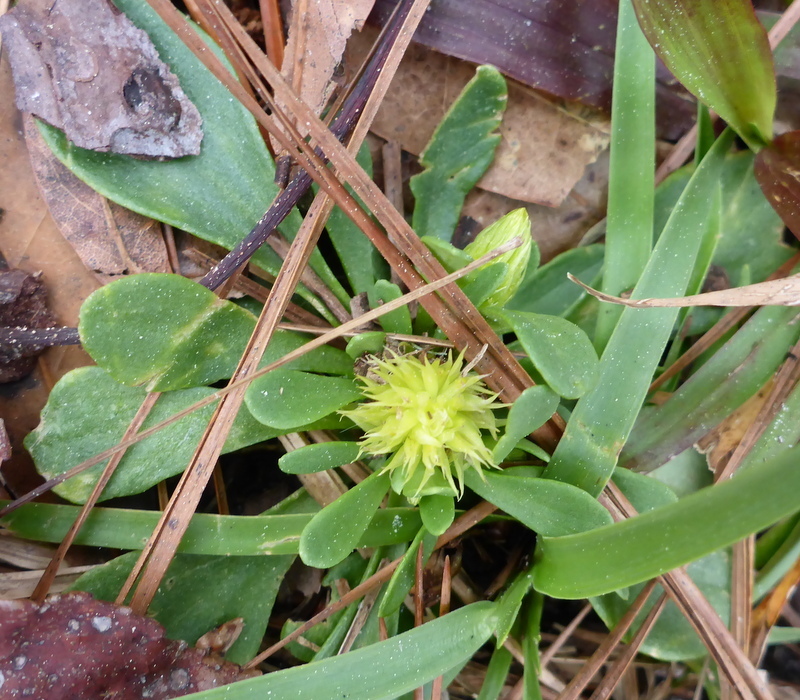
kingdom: Plantae
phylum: Tracheophyta
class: Magnoliopsida
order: Fabales
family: Polygalaceae
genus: Polygala
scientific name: Polygala nana
